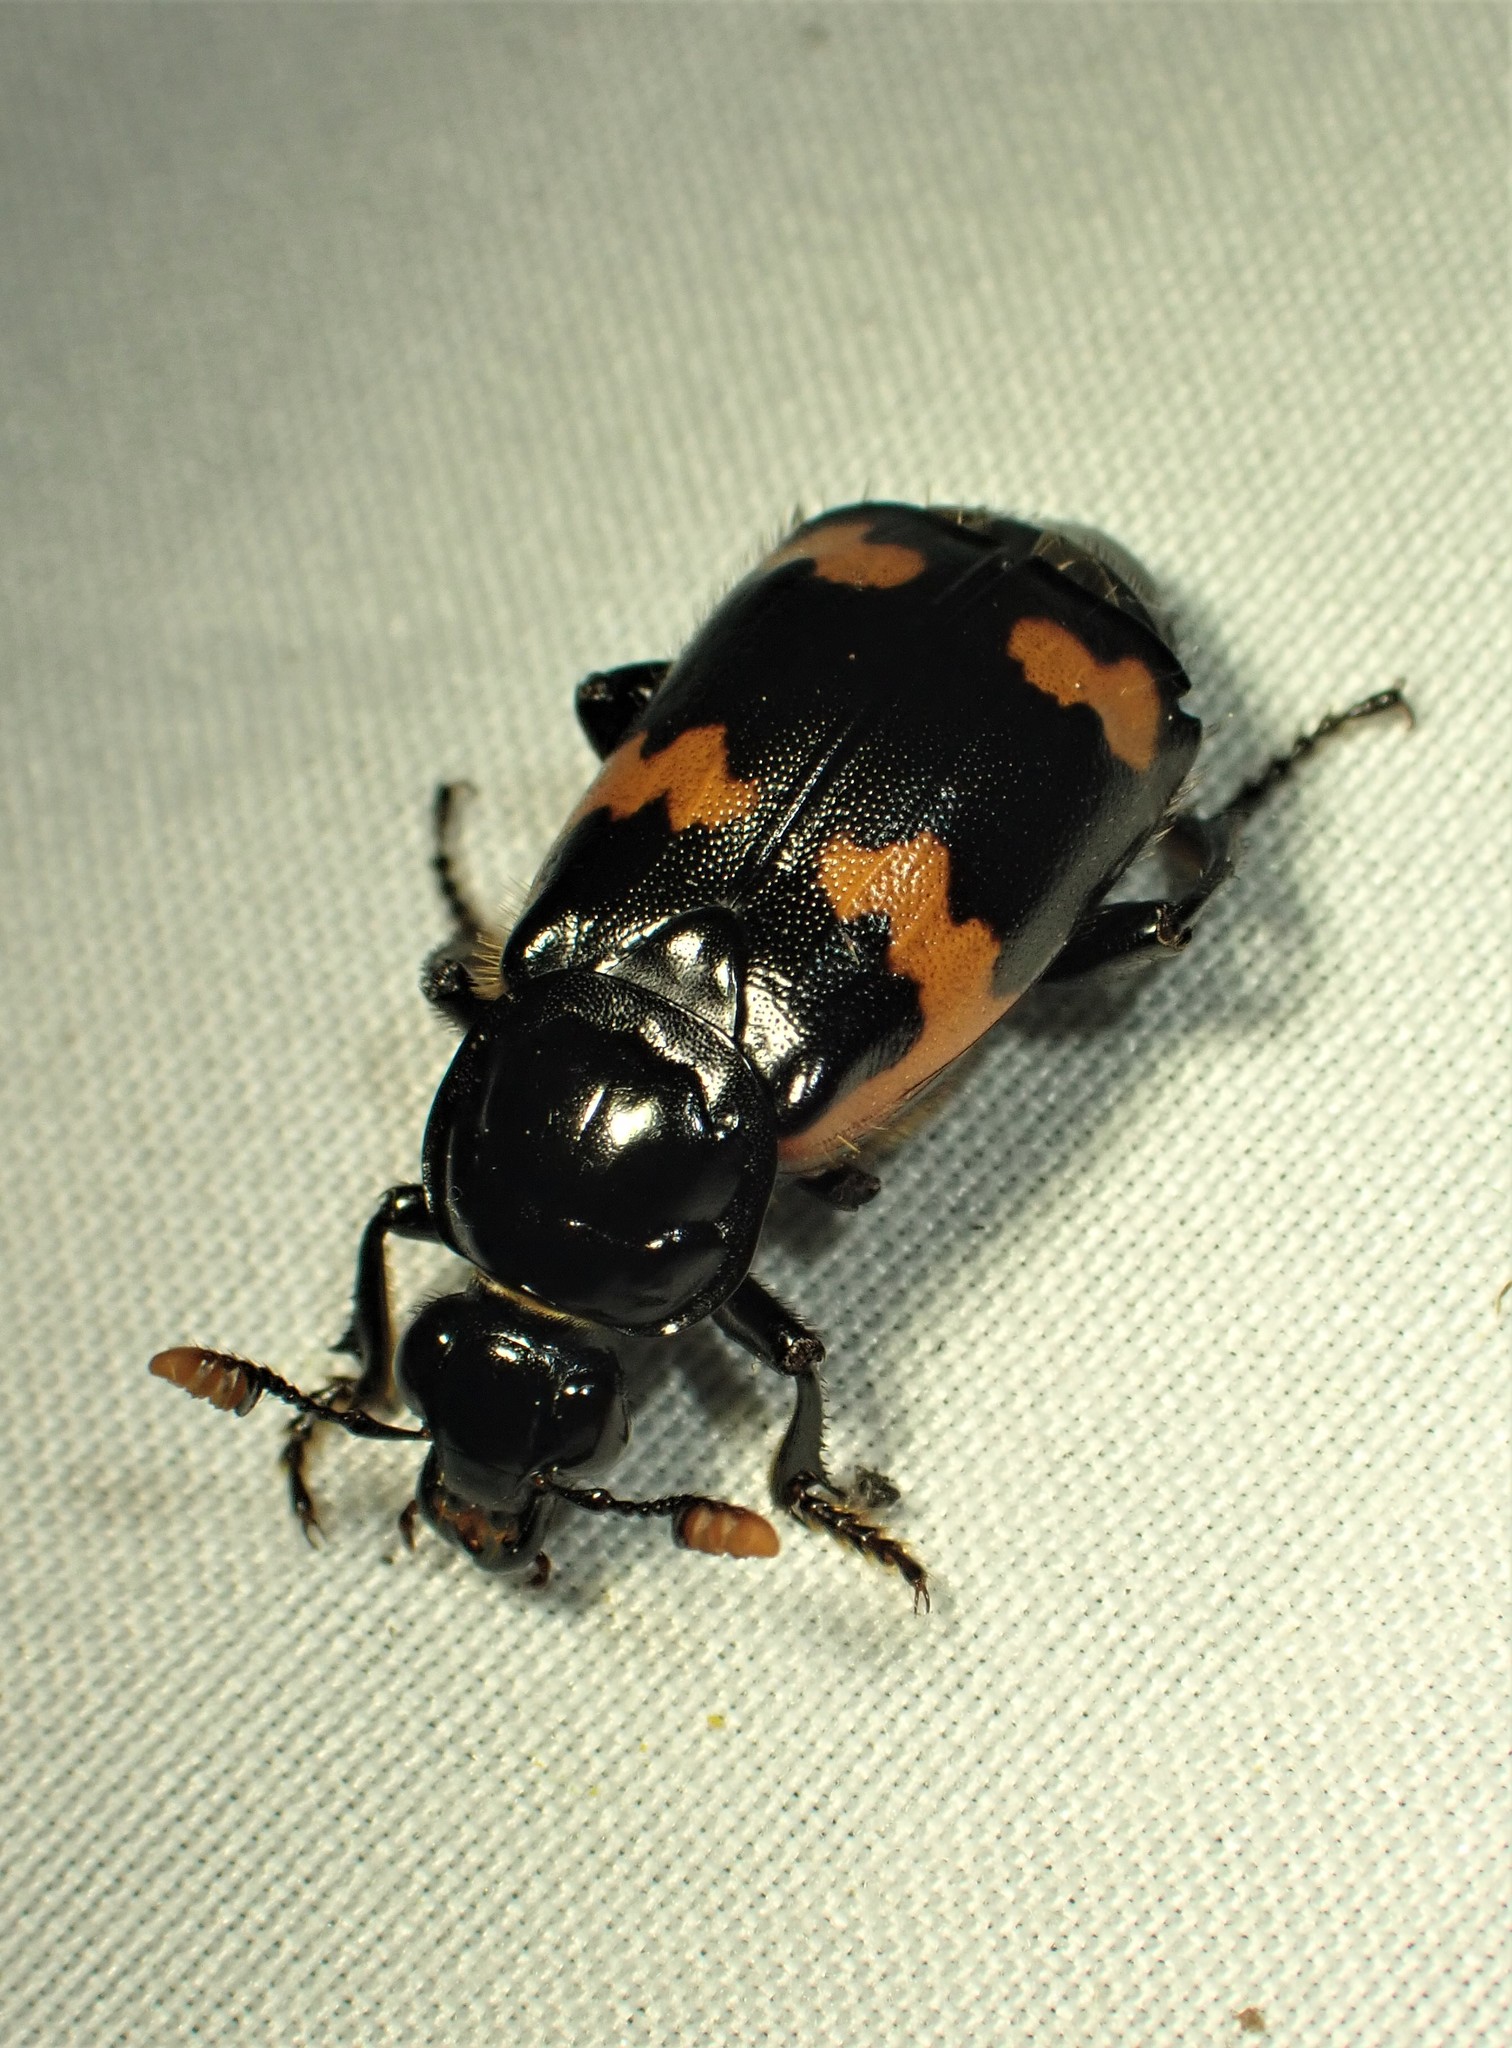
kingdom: Animalia
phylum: Arthropoda
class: Insecta
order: Coleoptera
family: Staphylinidae
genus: Nicrophorus
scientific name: Nicrophorus sayi
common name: Say's burying beetle
